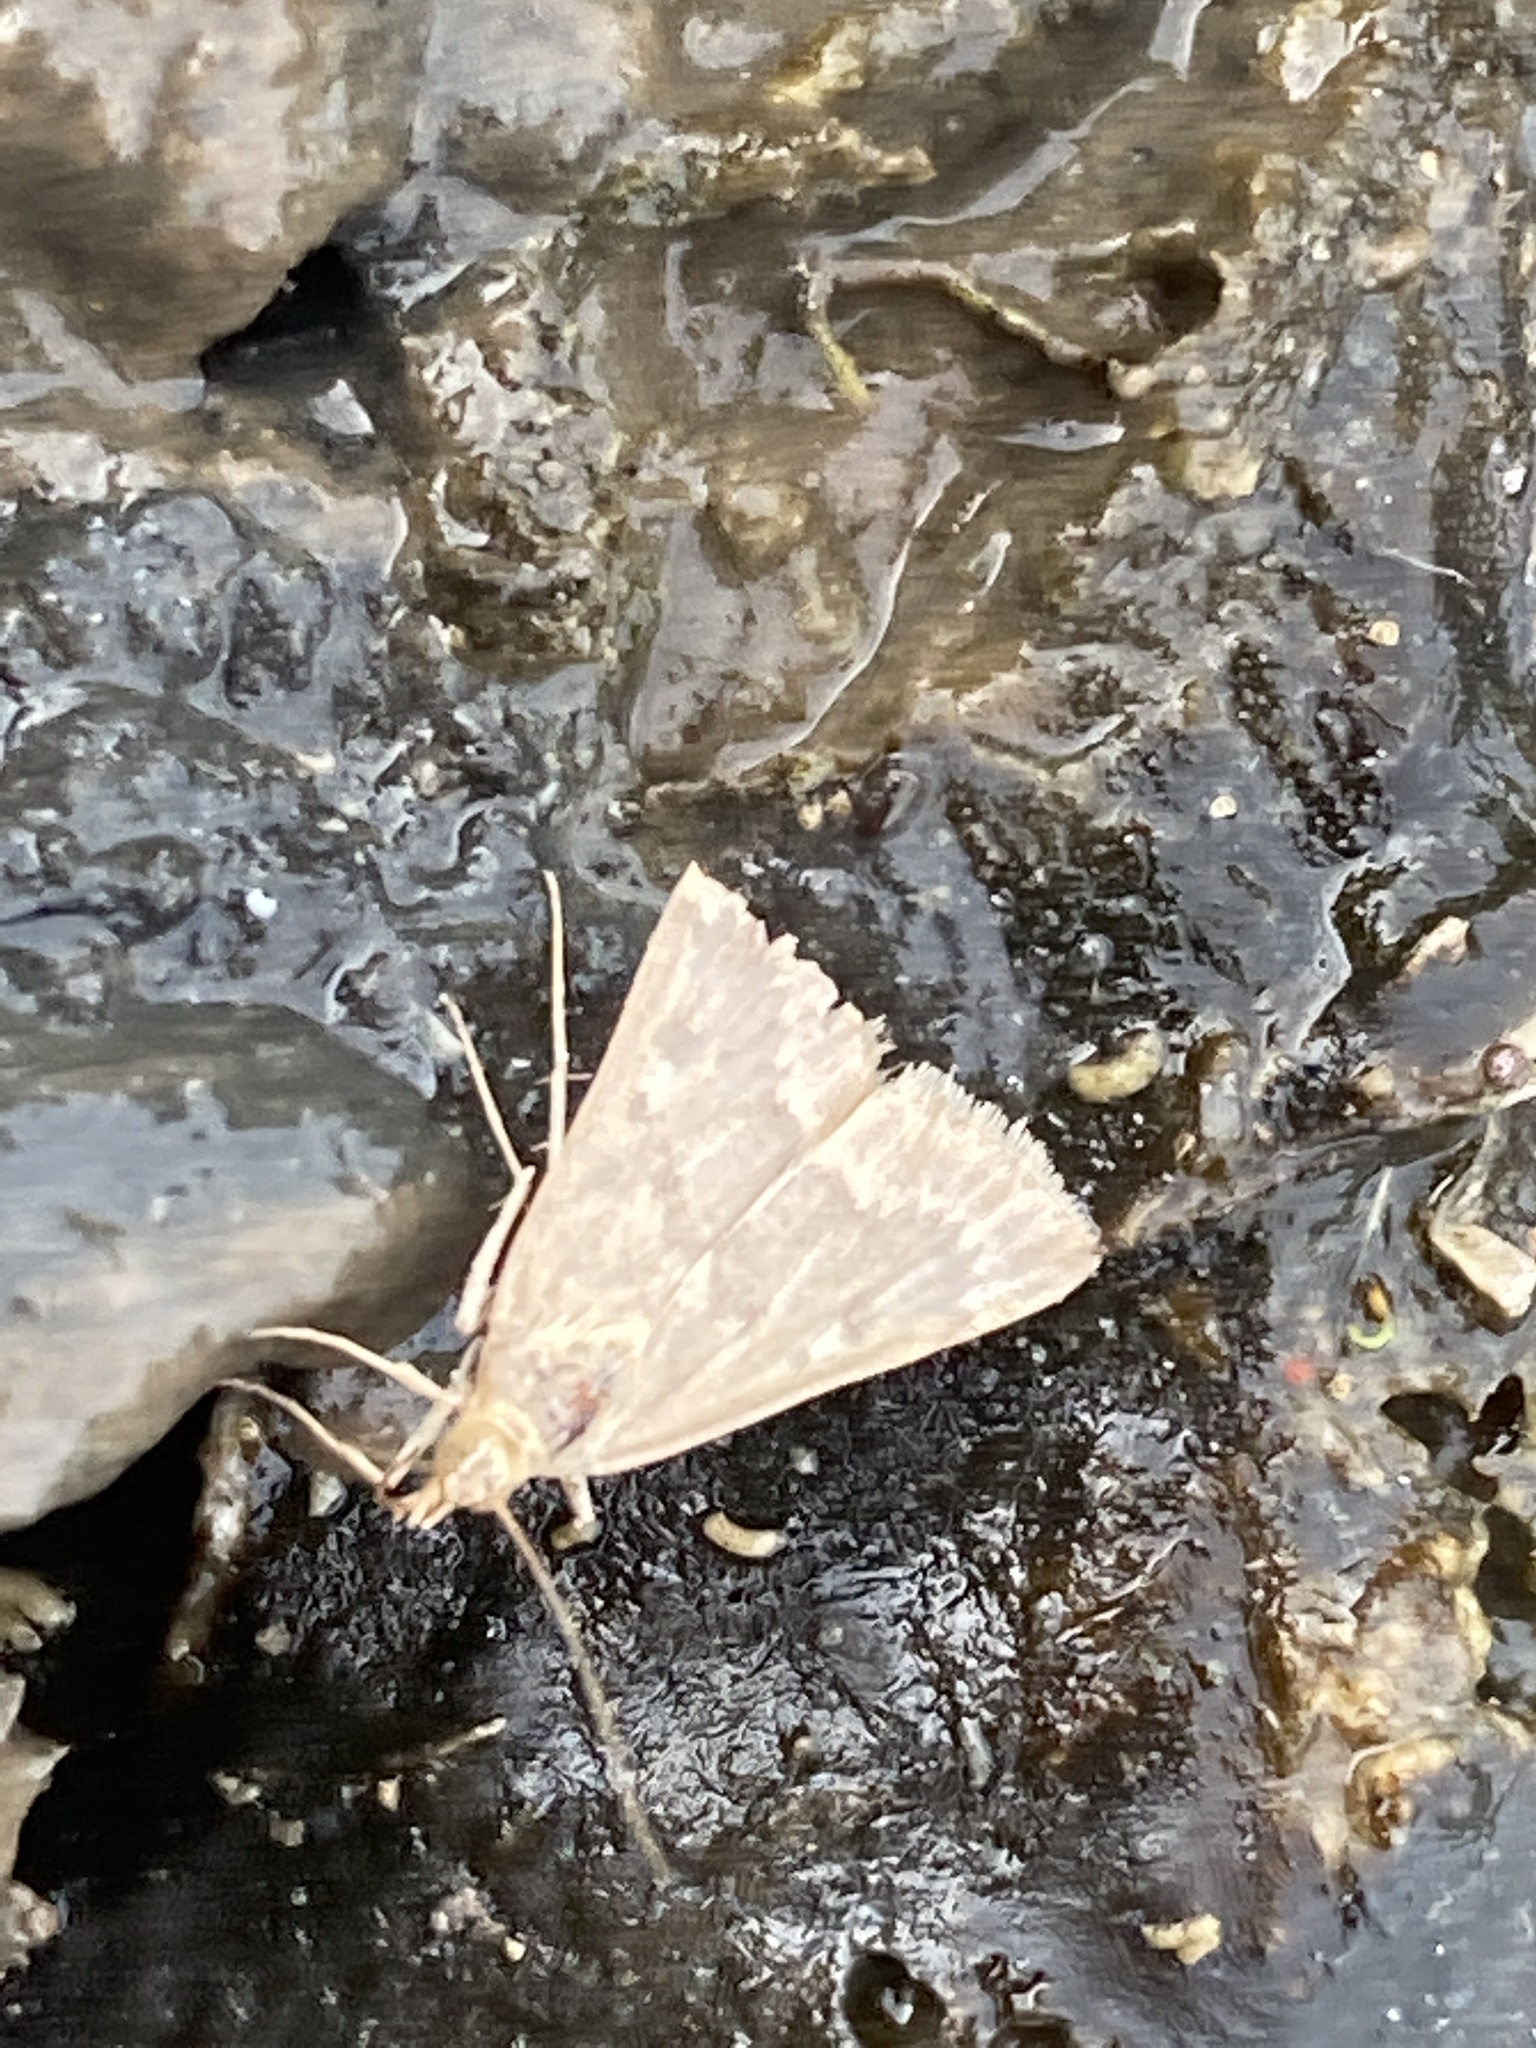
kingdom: Animalia
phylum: Arthropoda
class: Insecta
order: Lepidoptera
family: Crambidae
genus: Achyra
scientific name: Achyra rantalis
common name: Garden webworm
